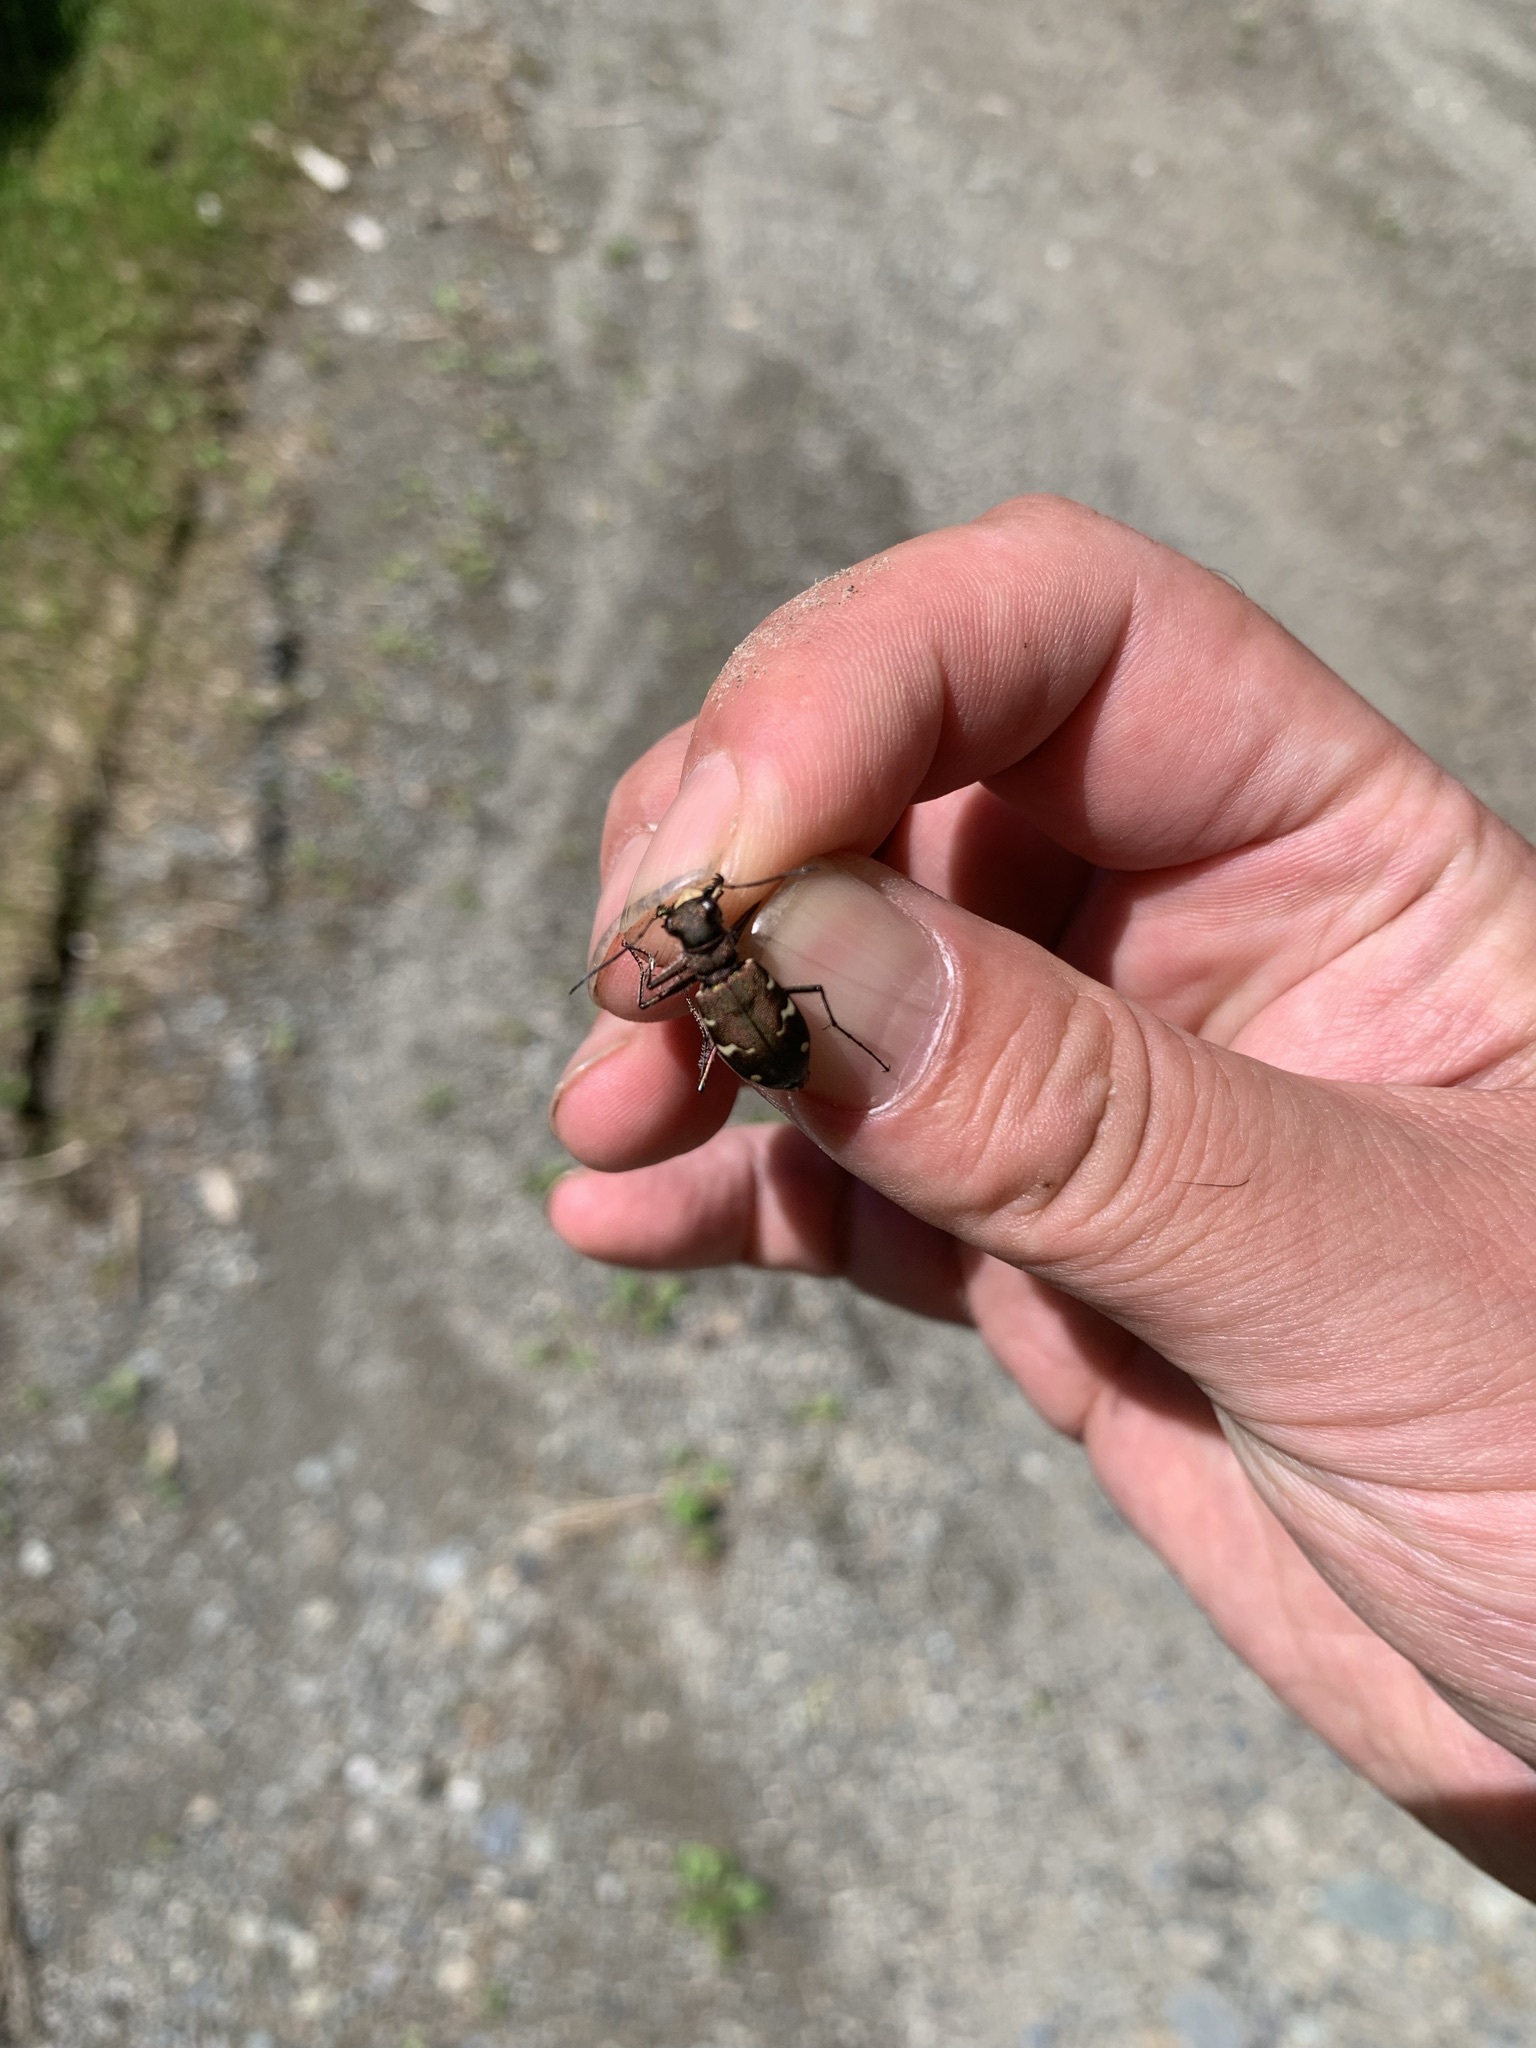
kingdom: Animalia
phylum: Arthropoda
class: Insecta
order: Coleoptera
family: Carabidae
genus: Cicindela
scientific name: Cicindela sachalinensis
